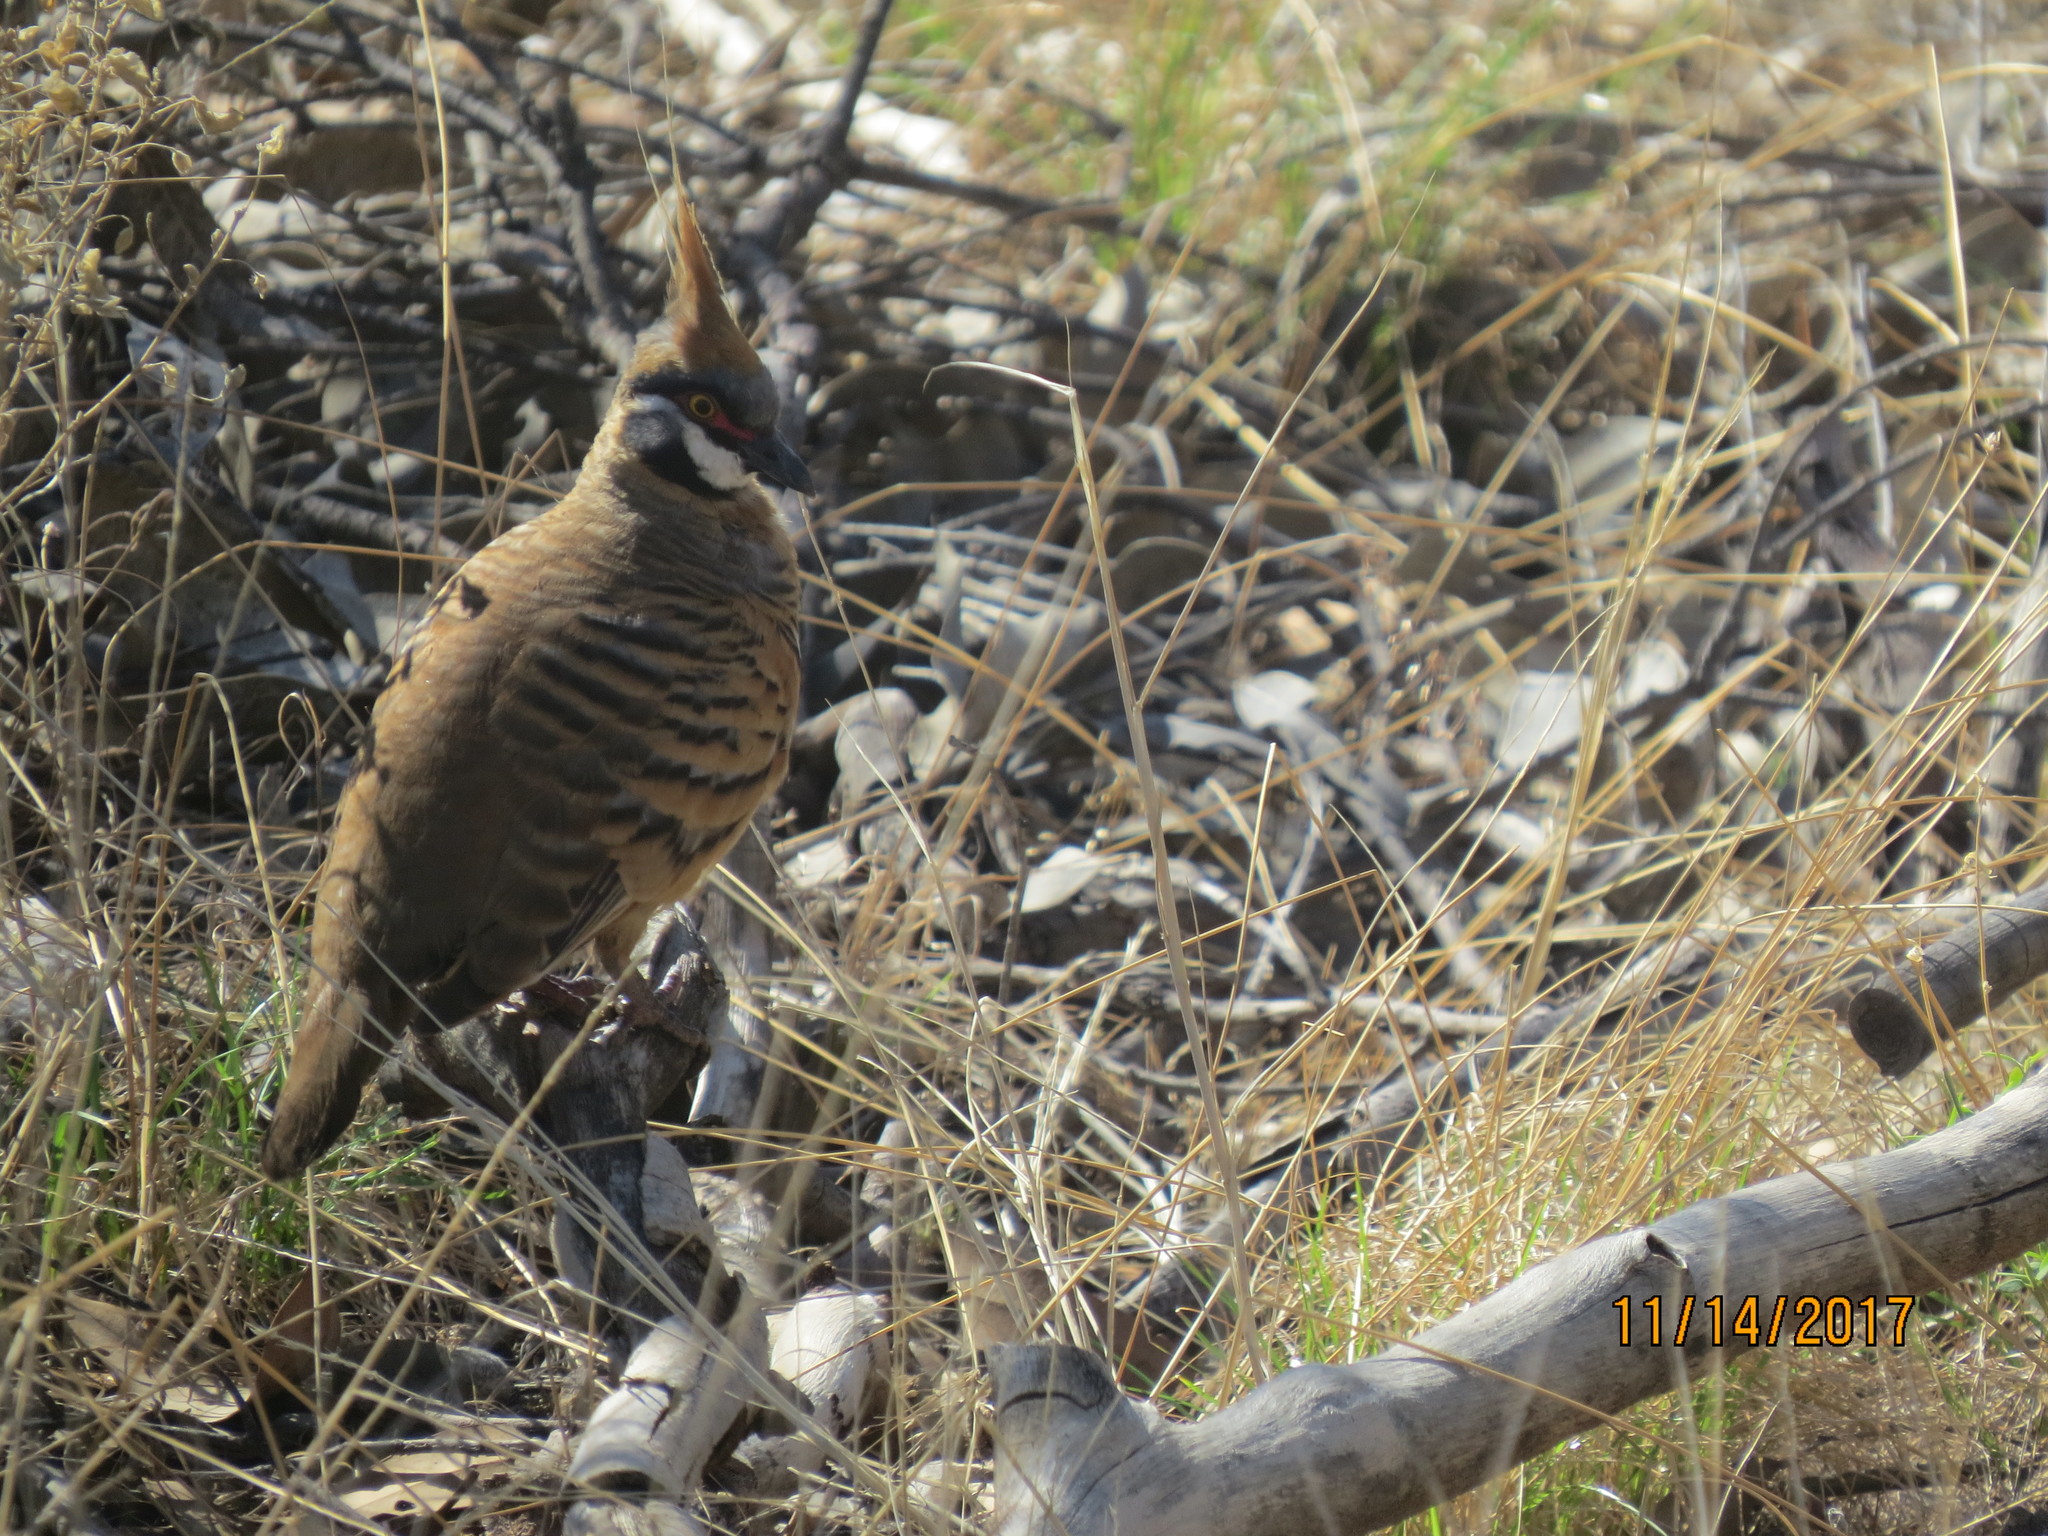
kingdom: Animalia
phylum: Chordata
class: Aves
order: Columbiformes
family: Columbidae
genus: Geophaps
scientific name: Geophaps plumifera
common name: Spinifex pigeon
